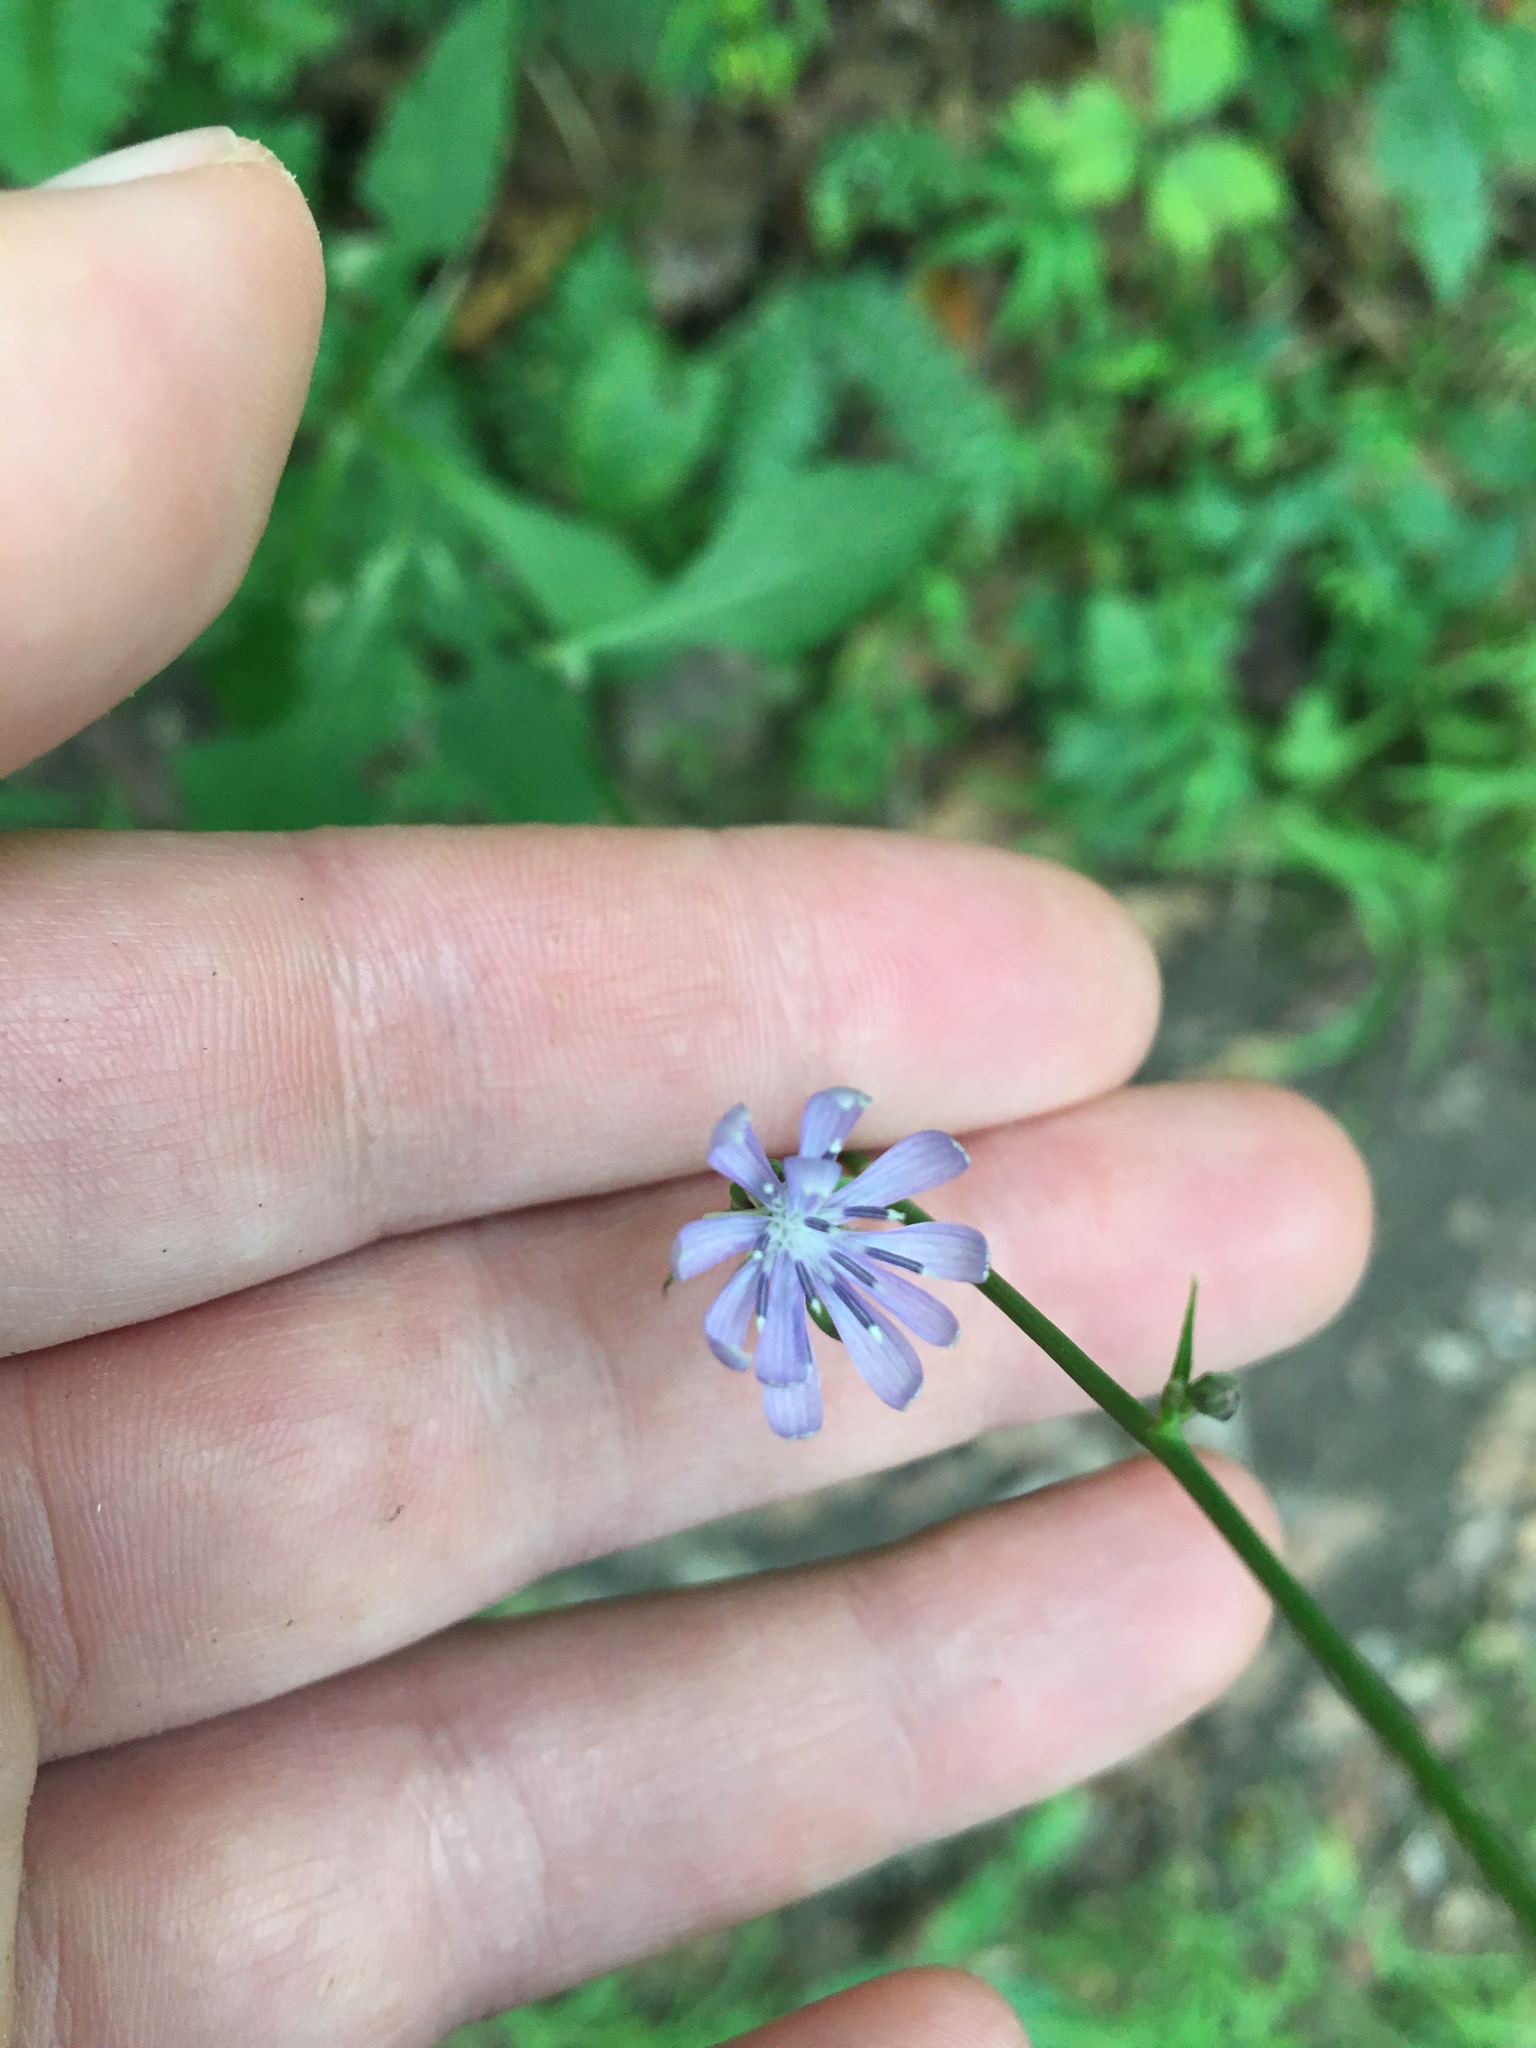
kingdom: Plantae
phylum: Tracheophyta
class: Magnoliopsida
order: Asterales
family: Asteraceae
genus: Lactuca
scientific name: Lactuca floridana
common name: Woodland lettuce
